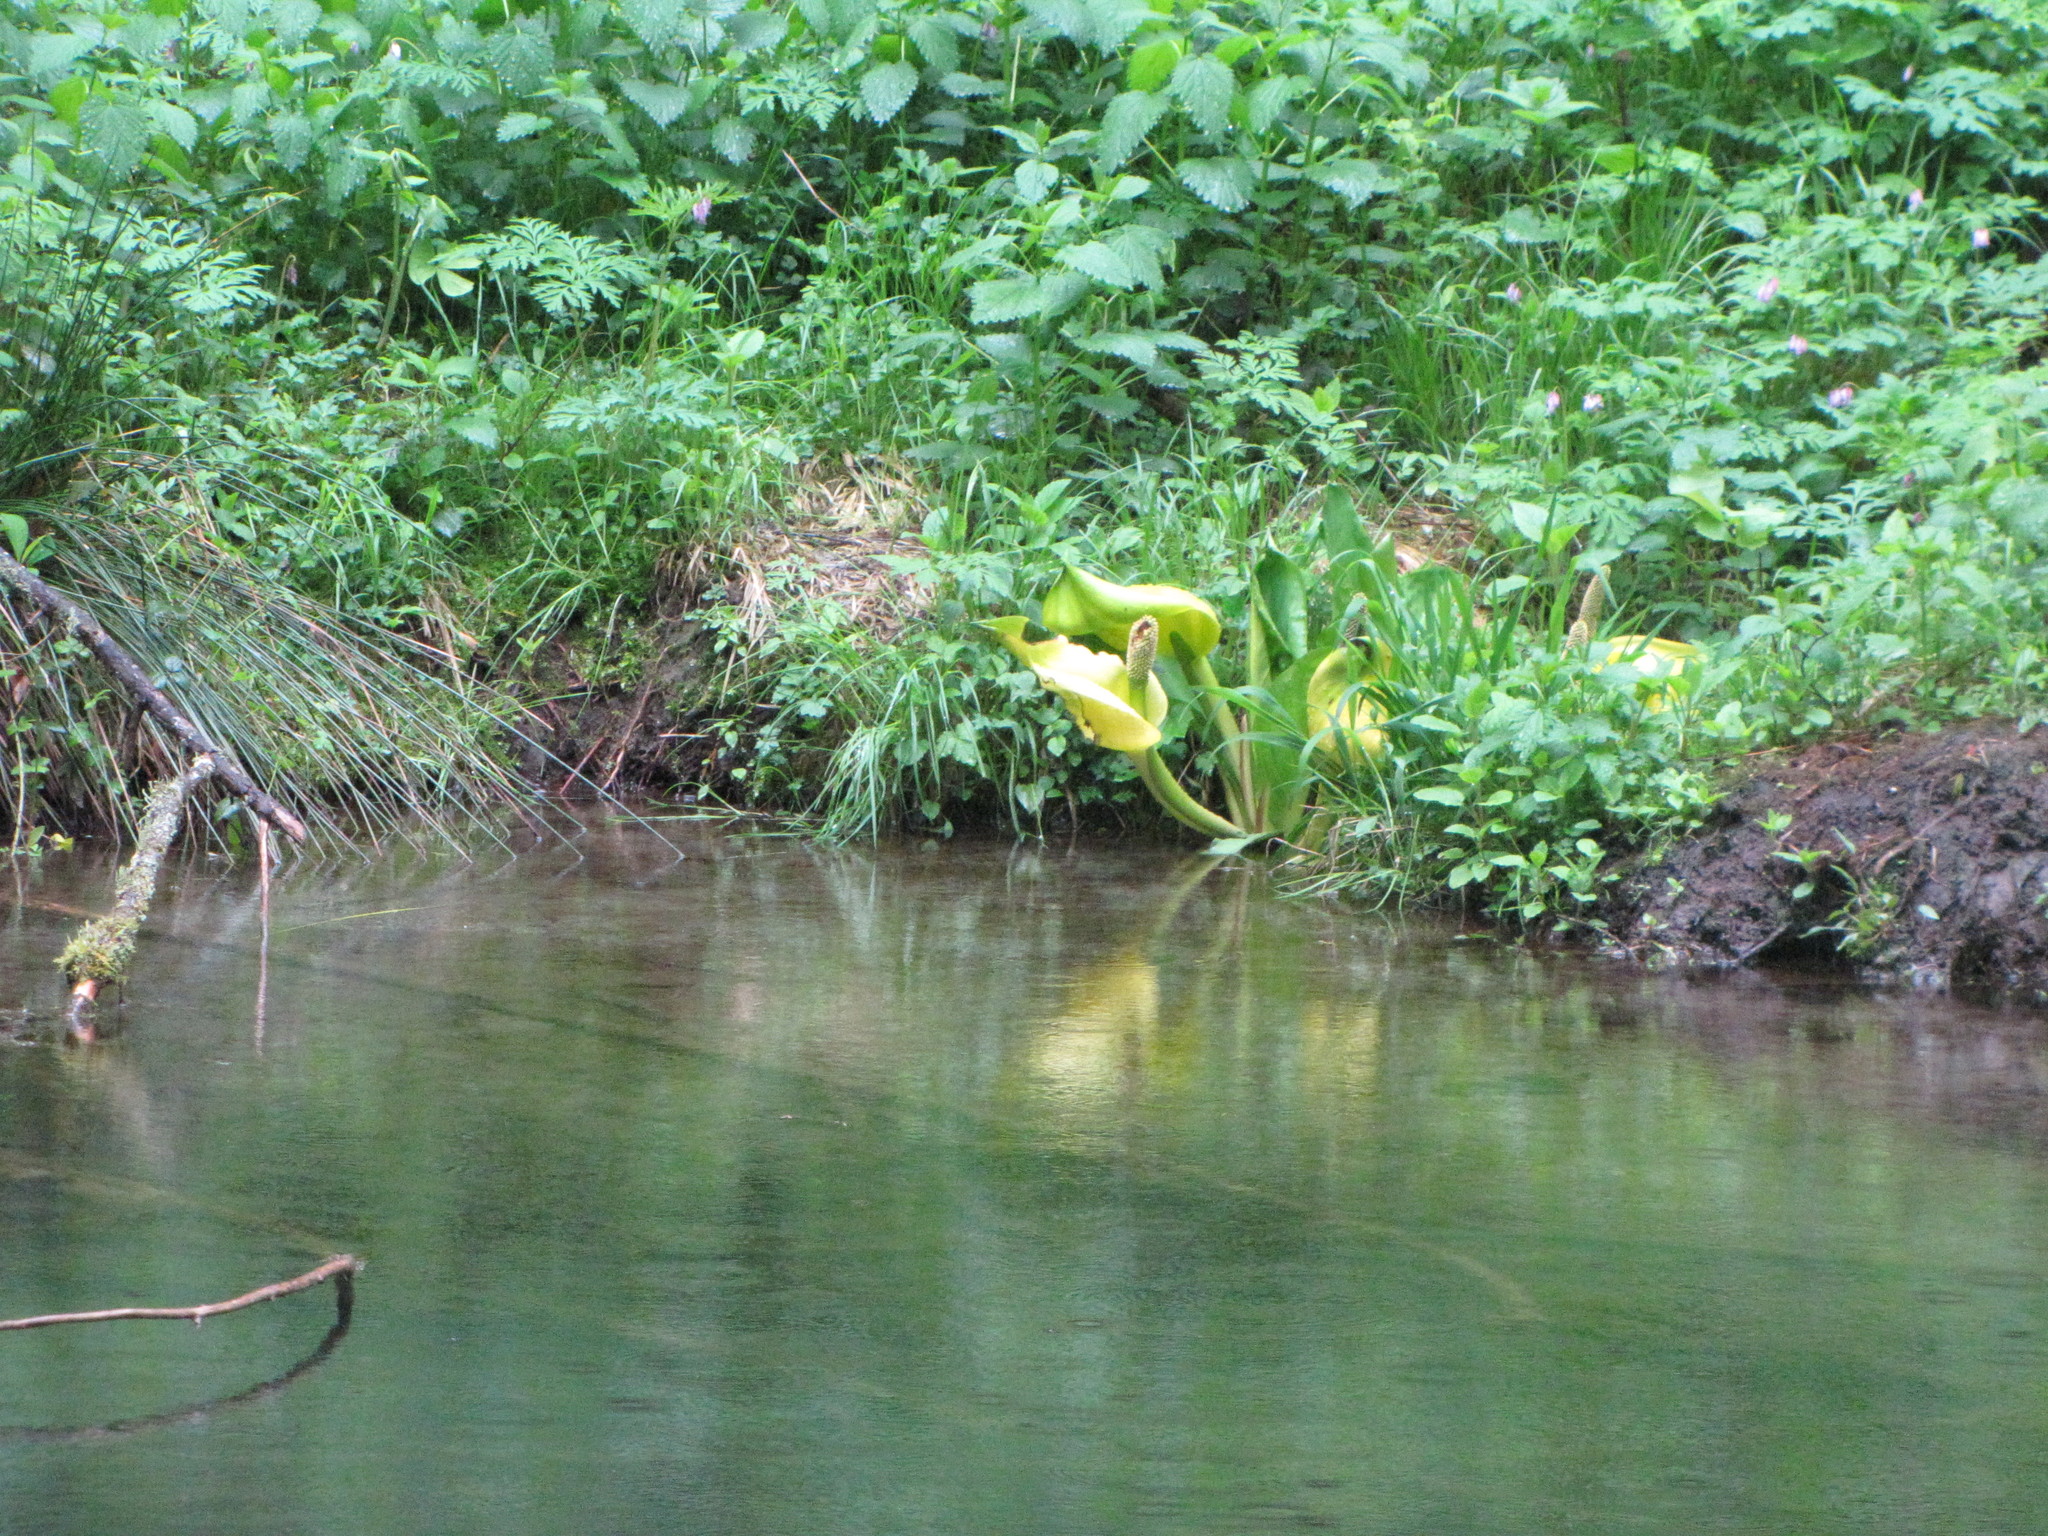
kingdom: Plantae
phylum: Tracheophyta
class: Liliopsida
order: Alismatales
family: Araceae
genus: Lysichiton
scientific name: Lysichiton americanus
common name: American skunk cabbage
